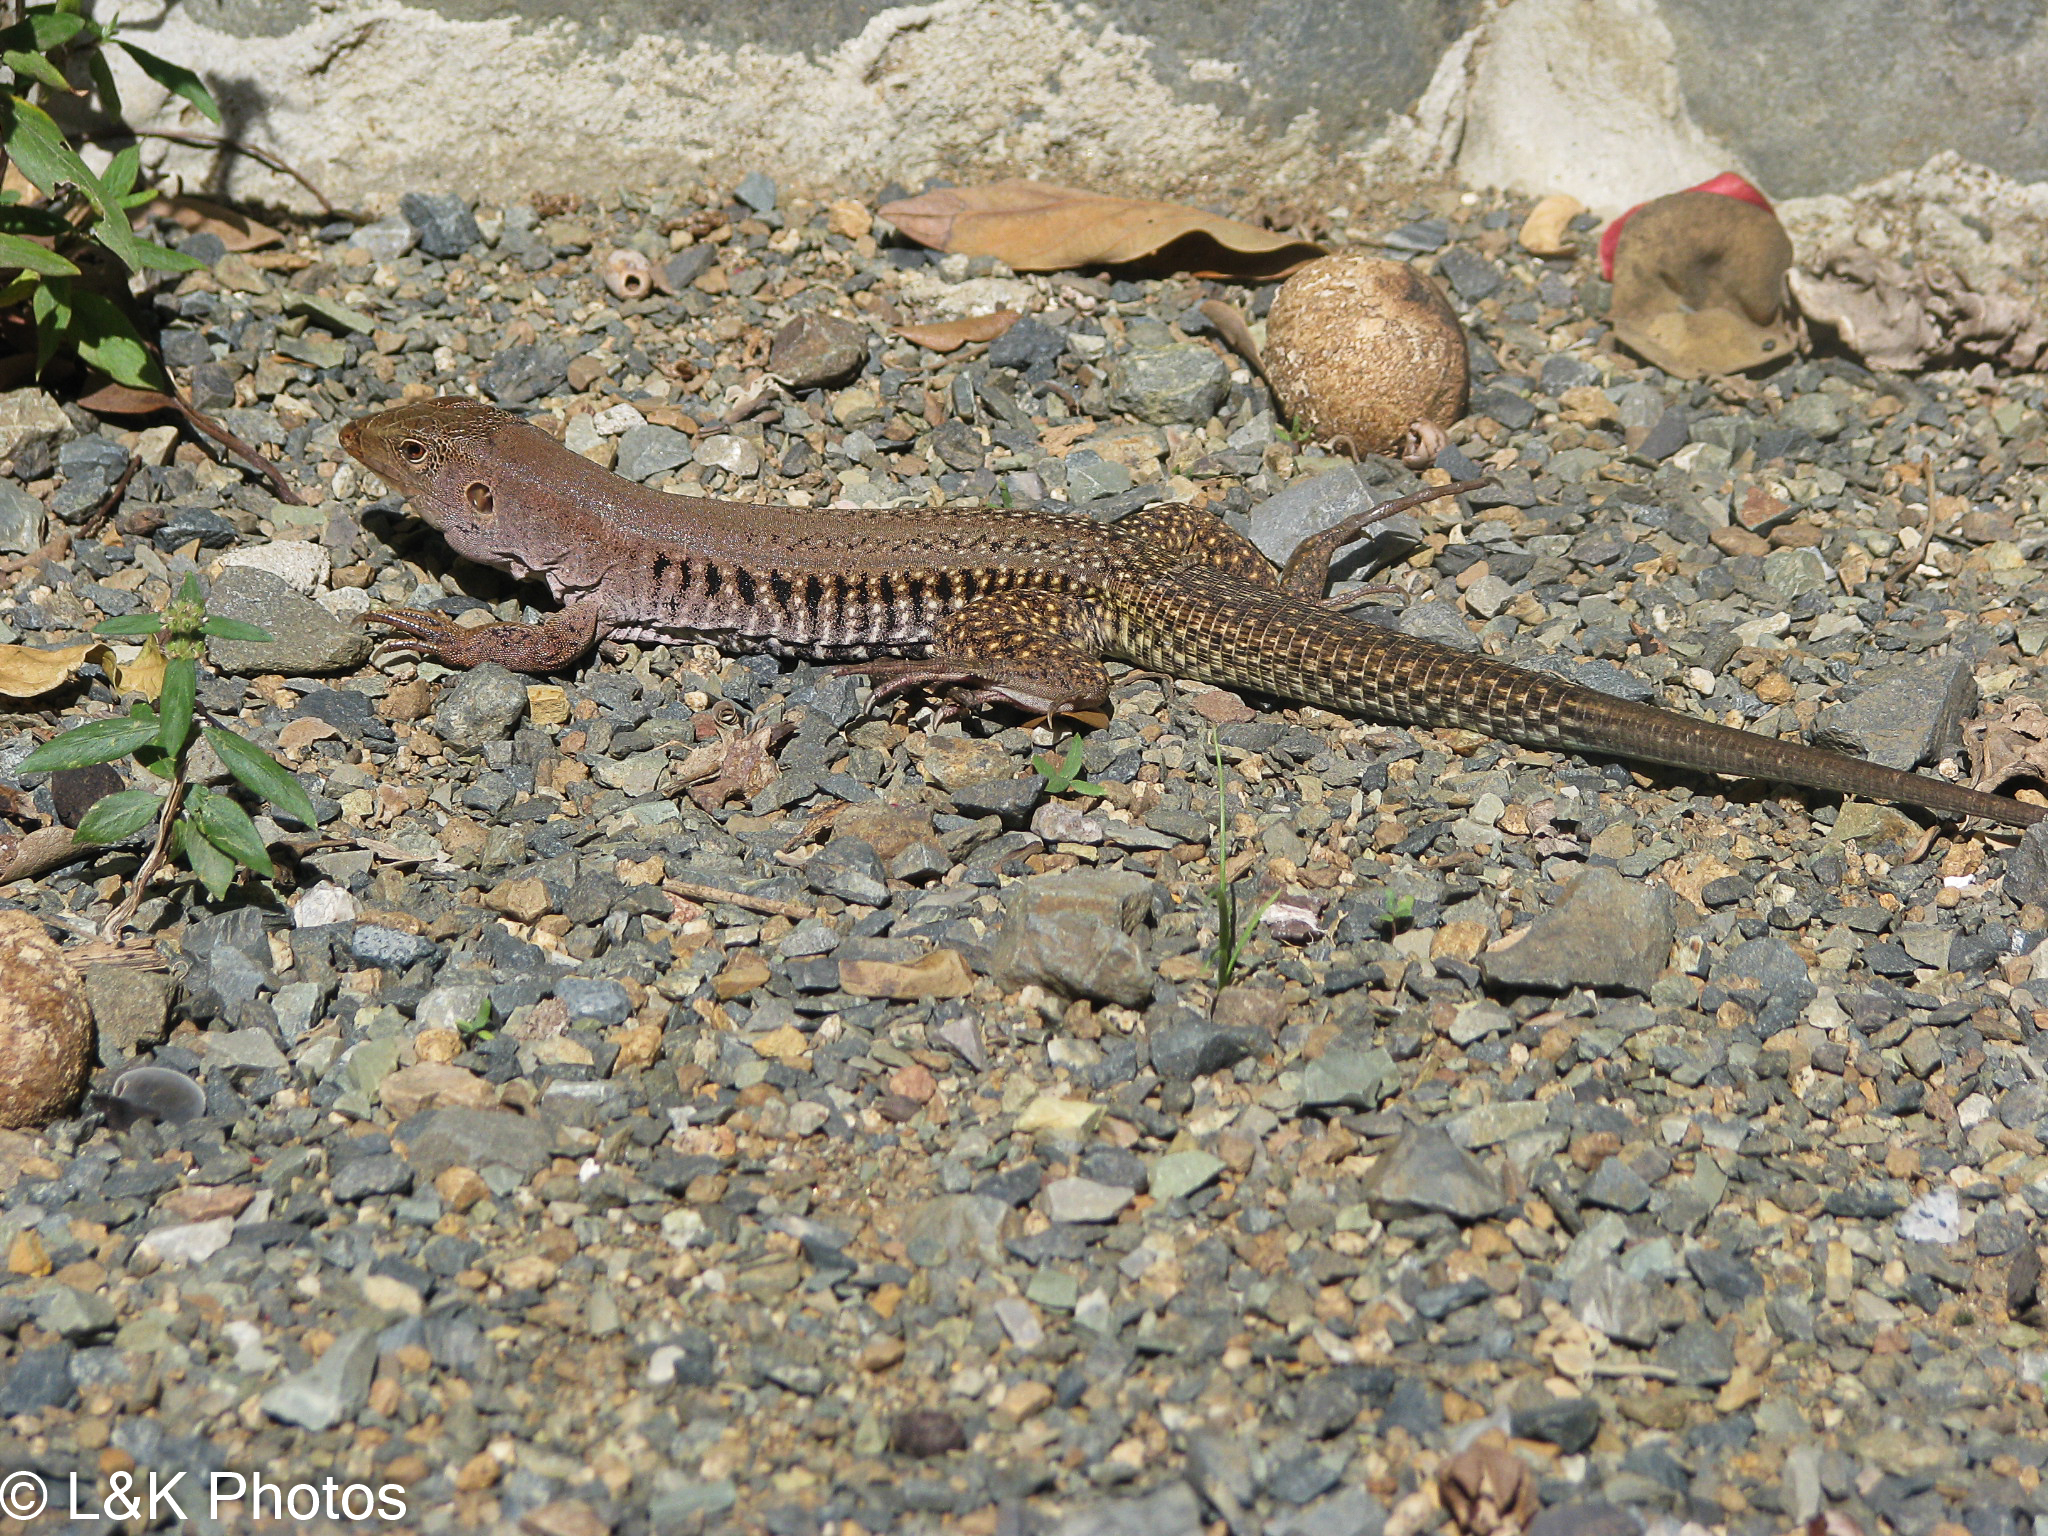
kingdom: Animalia
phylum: Chordata
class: Squamata
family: Teiidae
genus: Pholidoscelis
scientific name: Pholidoscelis exsul
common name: Common puerto rican ameiva
